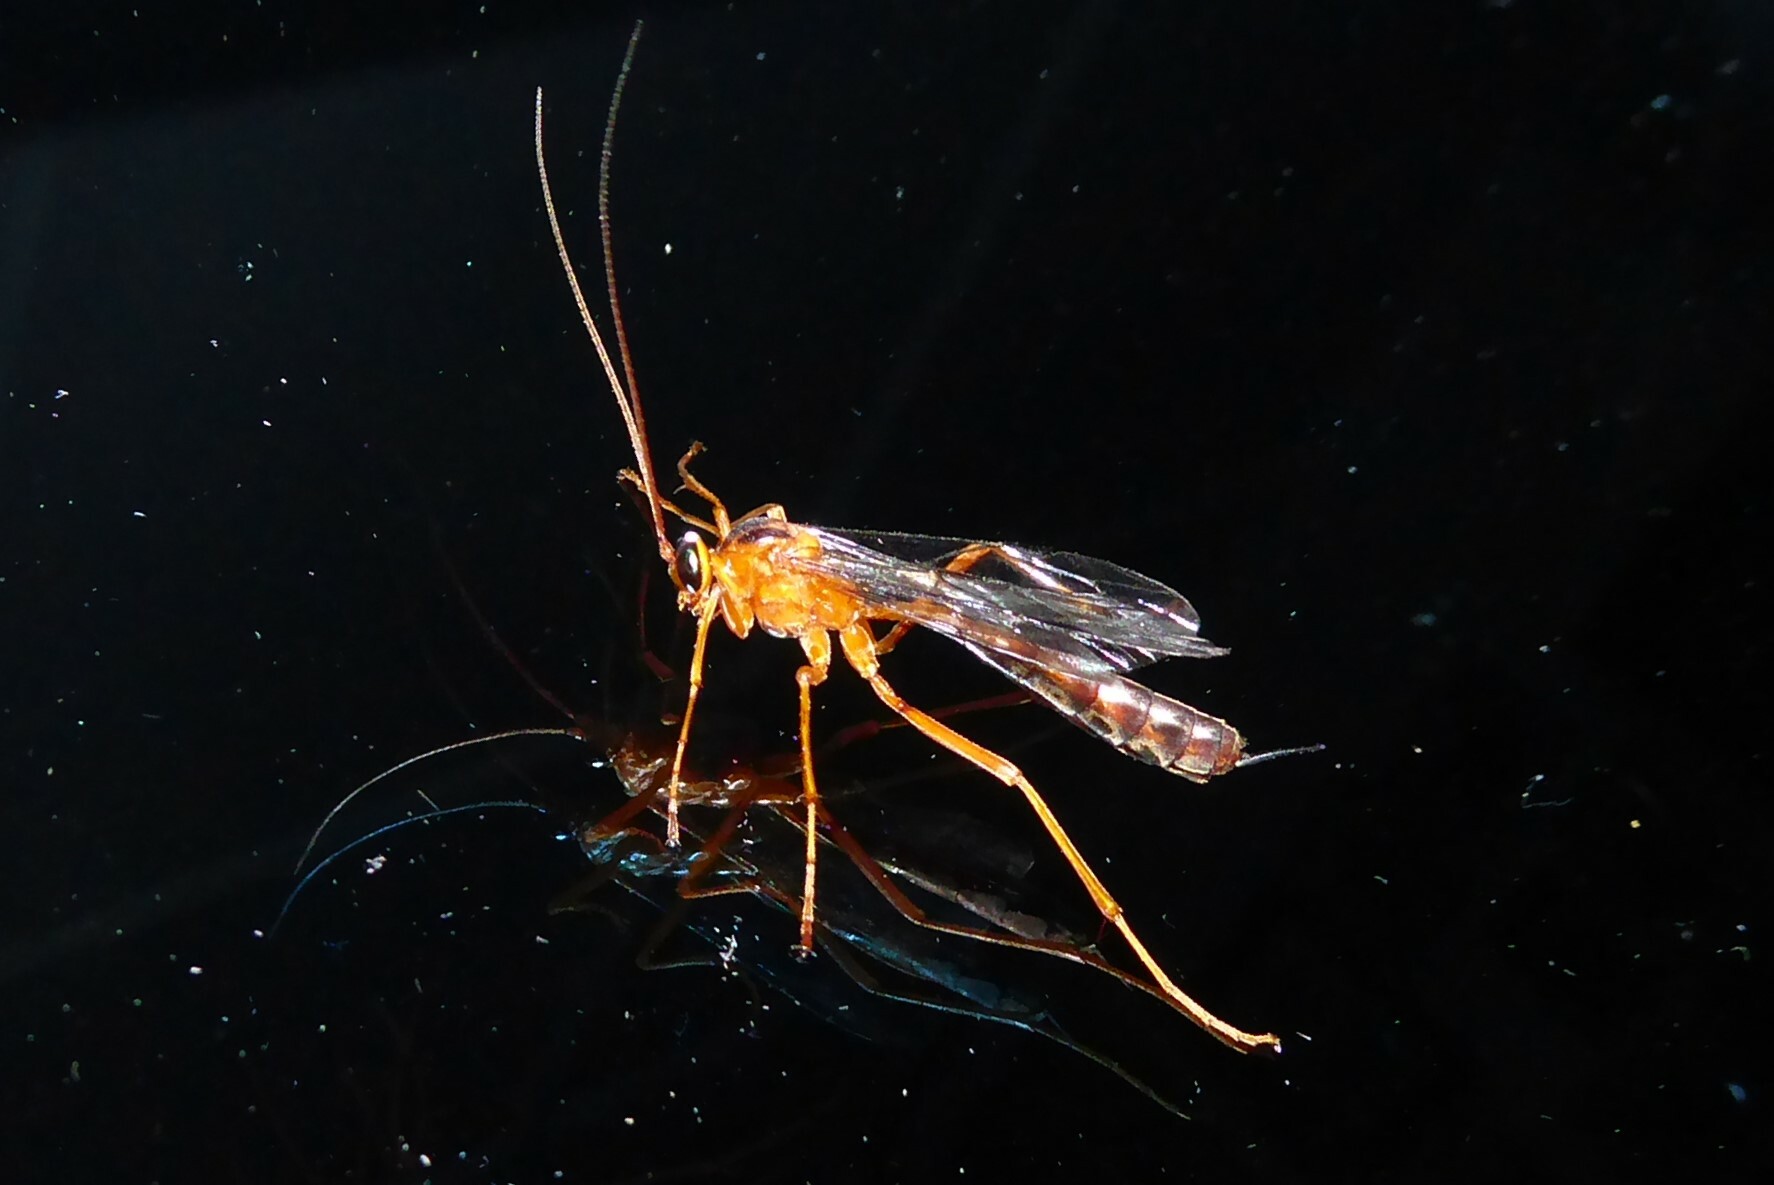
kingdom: Animalia
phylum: Arthropoda
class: Insecta
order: Hymenoptera
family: Ichneumonidae
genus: Netelia
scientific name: Netelia ephippiata
